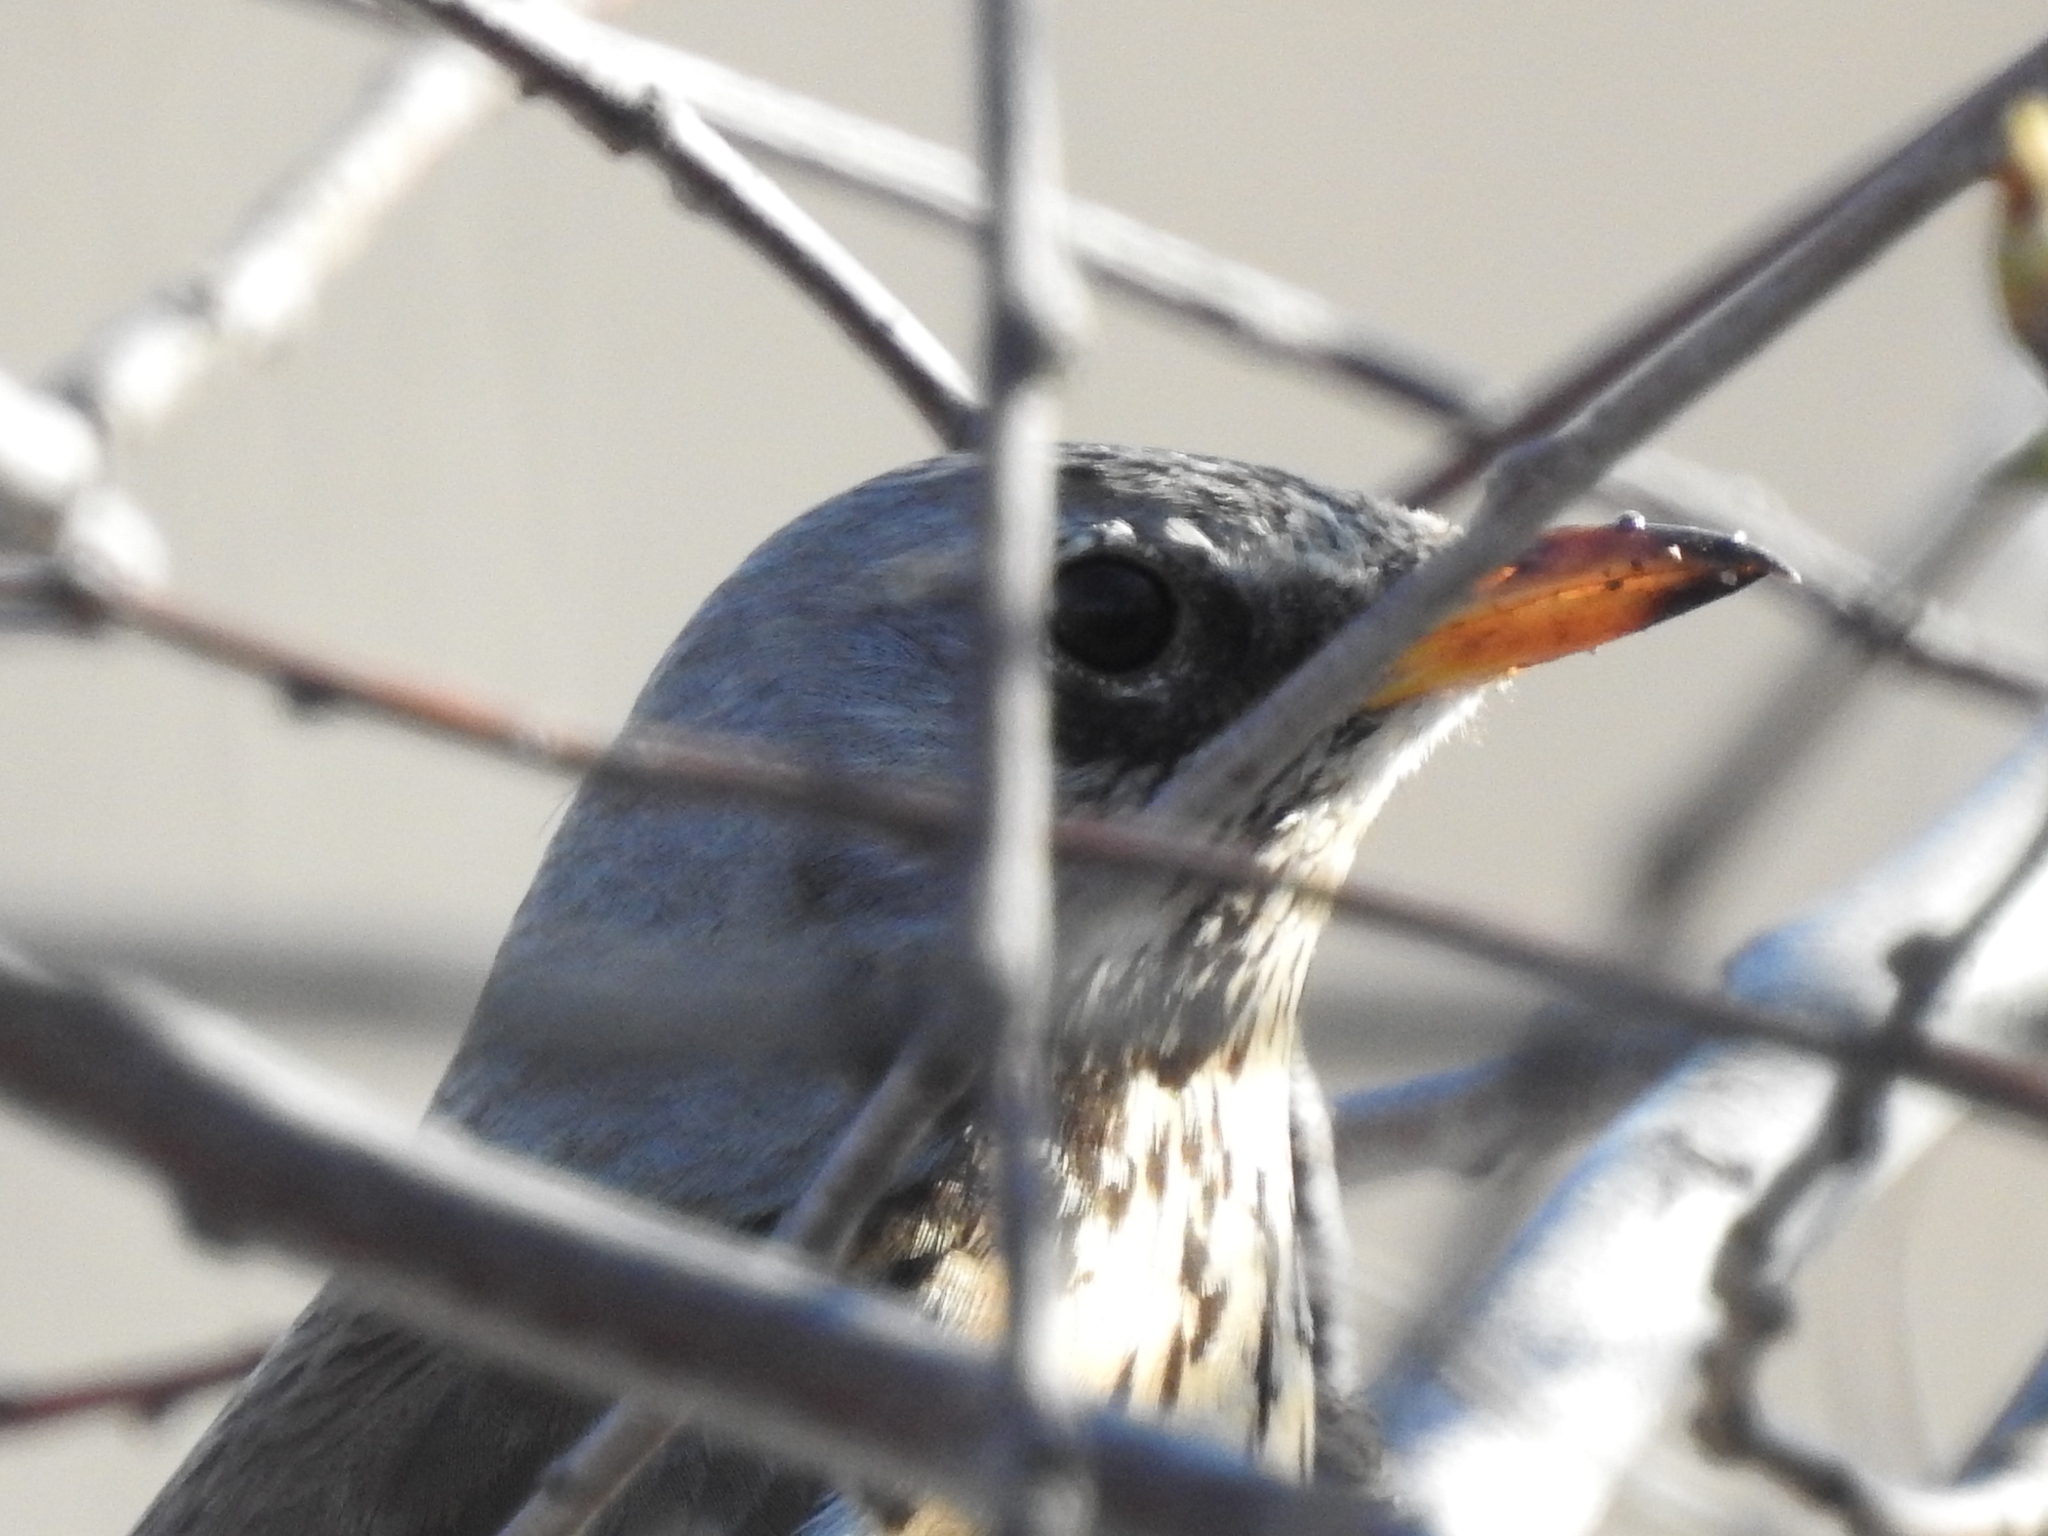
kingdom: Animalia
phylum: Chordata
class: Aves
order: Passeriformes
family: Turdidae
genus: Turdus
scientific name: Turdus pilaris
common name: Fieldfare
